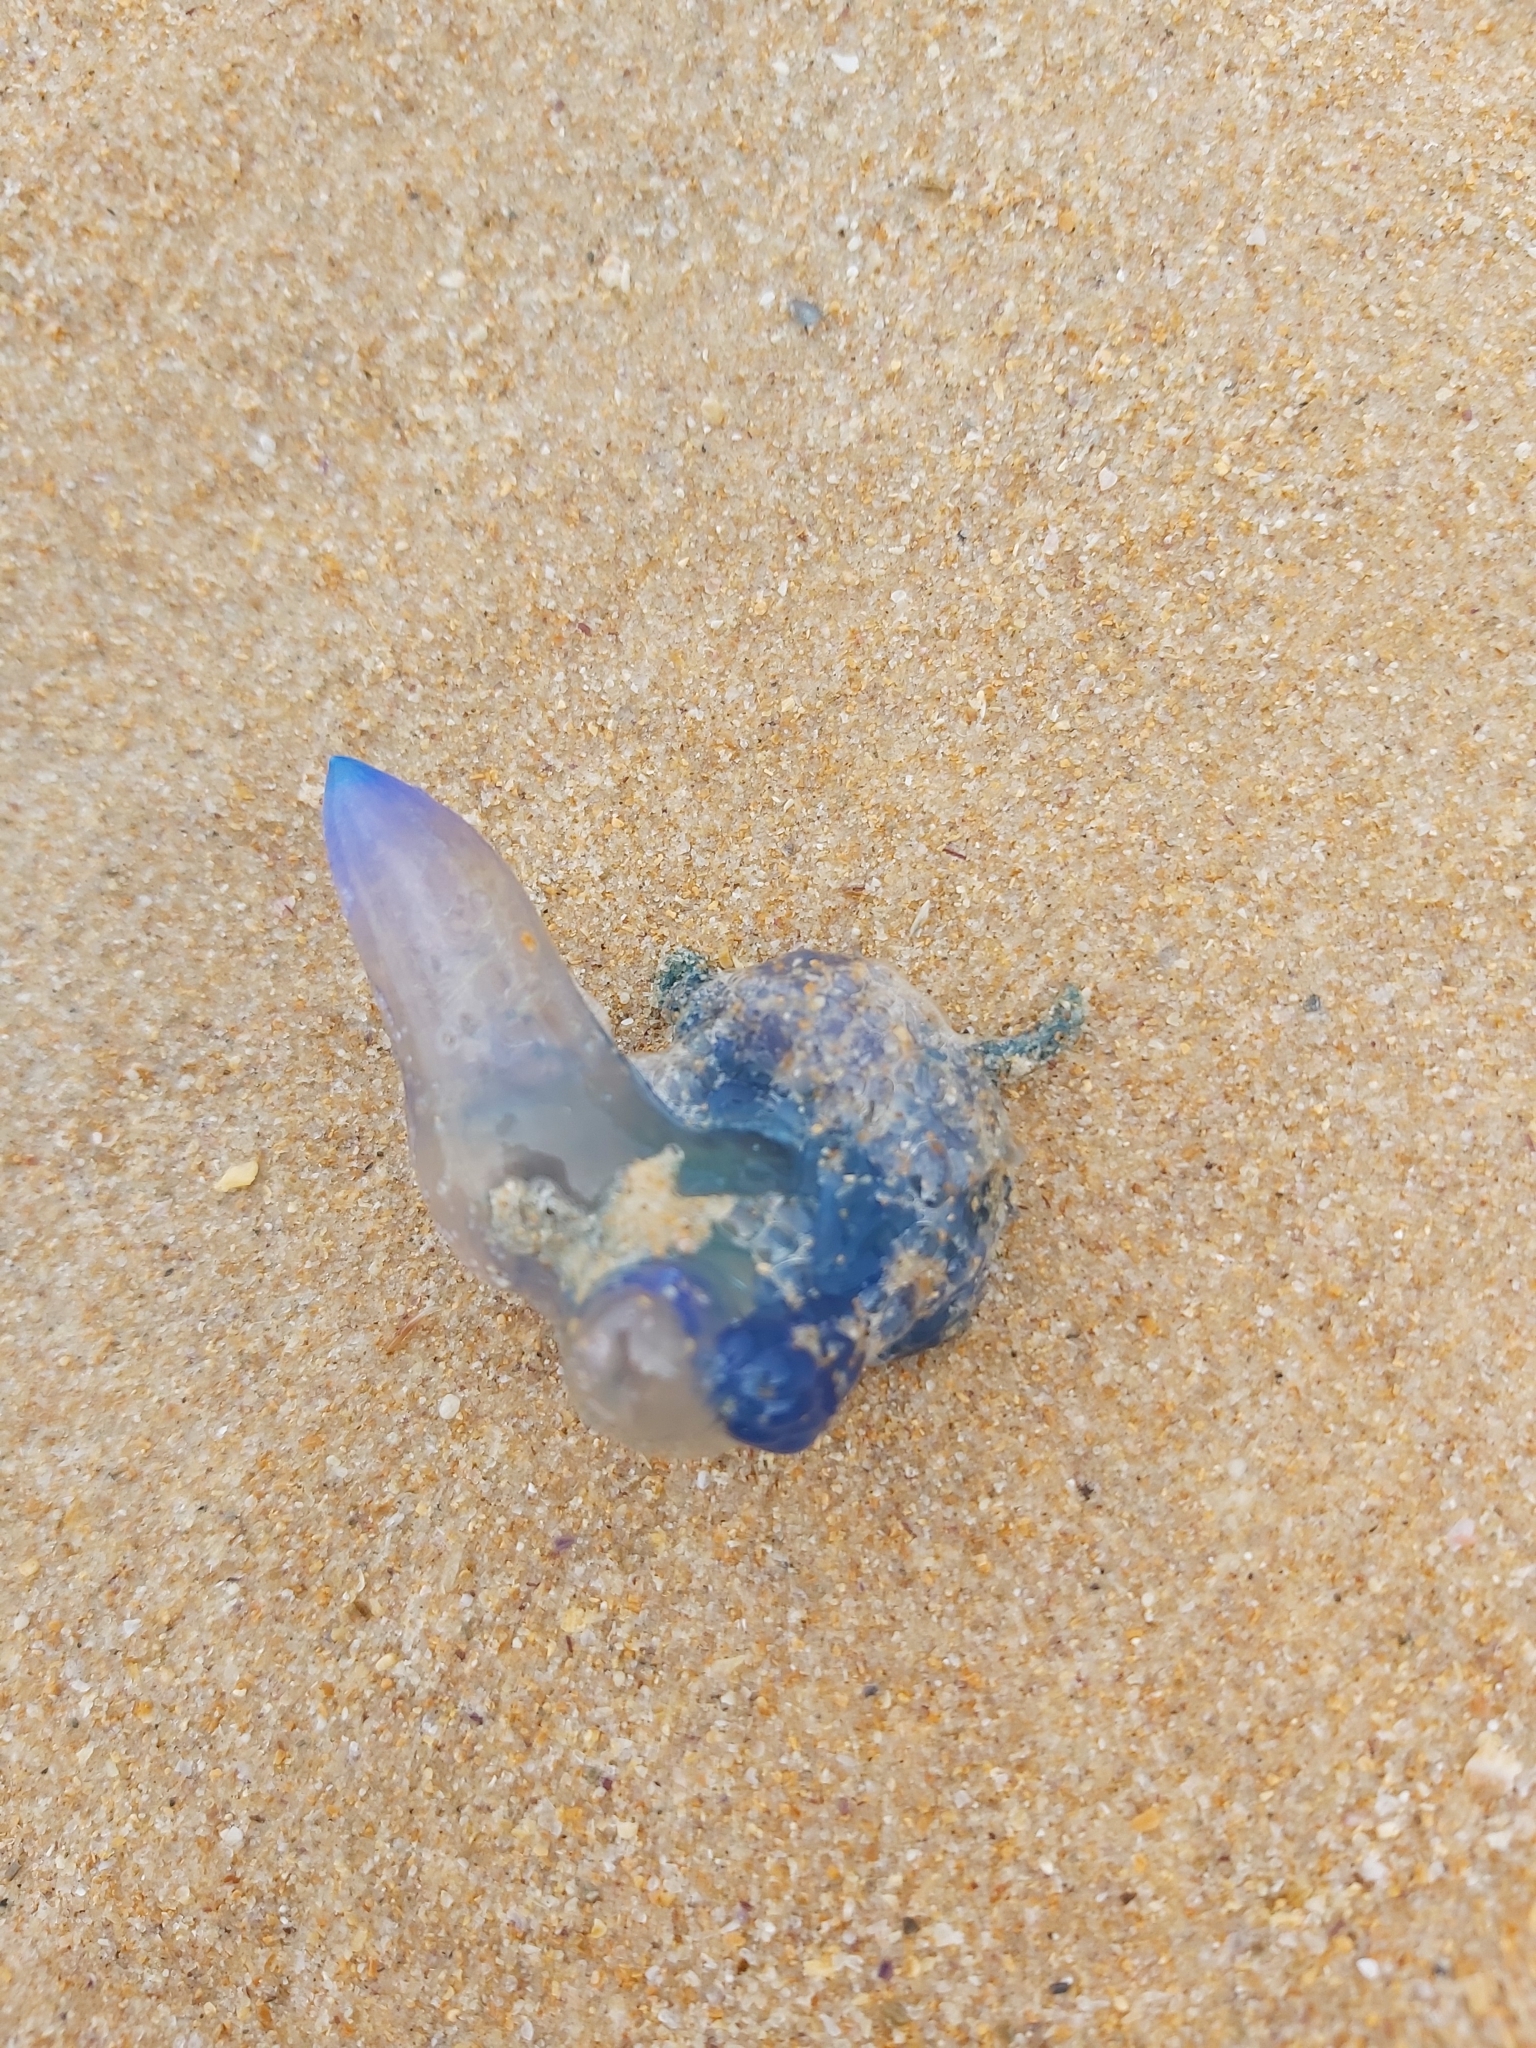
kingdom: Animalia
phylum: Cnidaria
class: Hydrozoa
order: Siphonophorae
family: Physaliidae
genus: Physalia
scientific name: Physalia physalis
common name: Portuguese man-of-war
